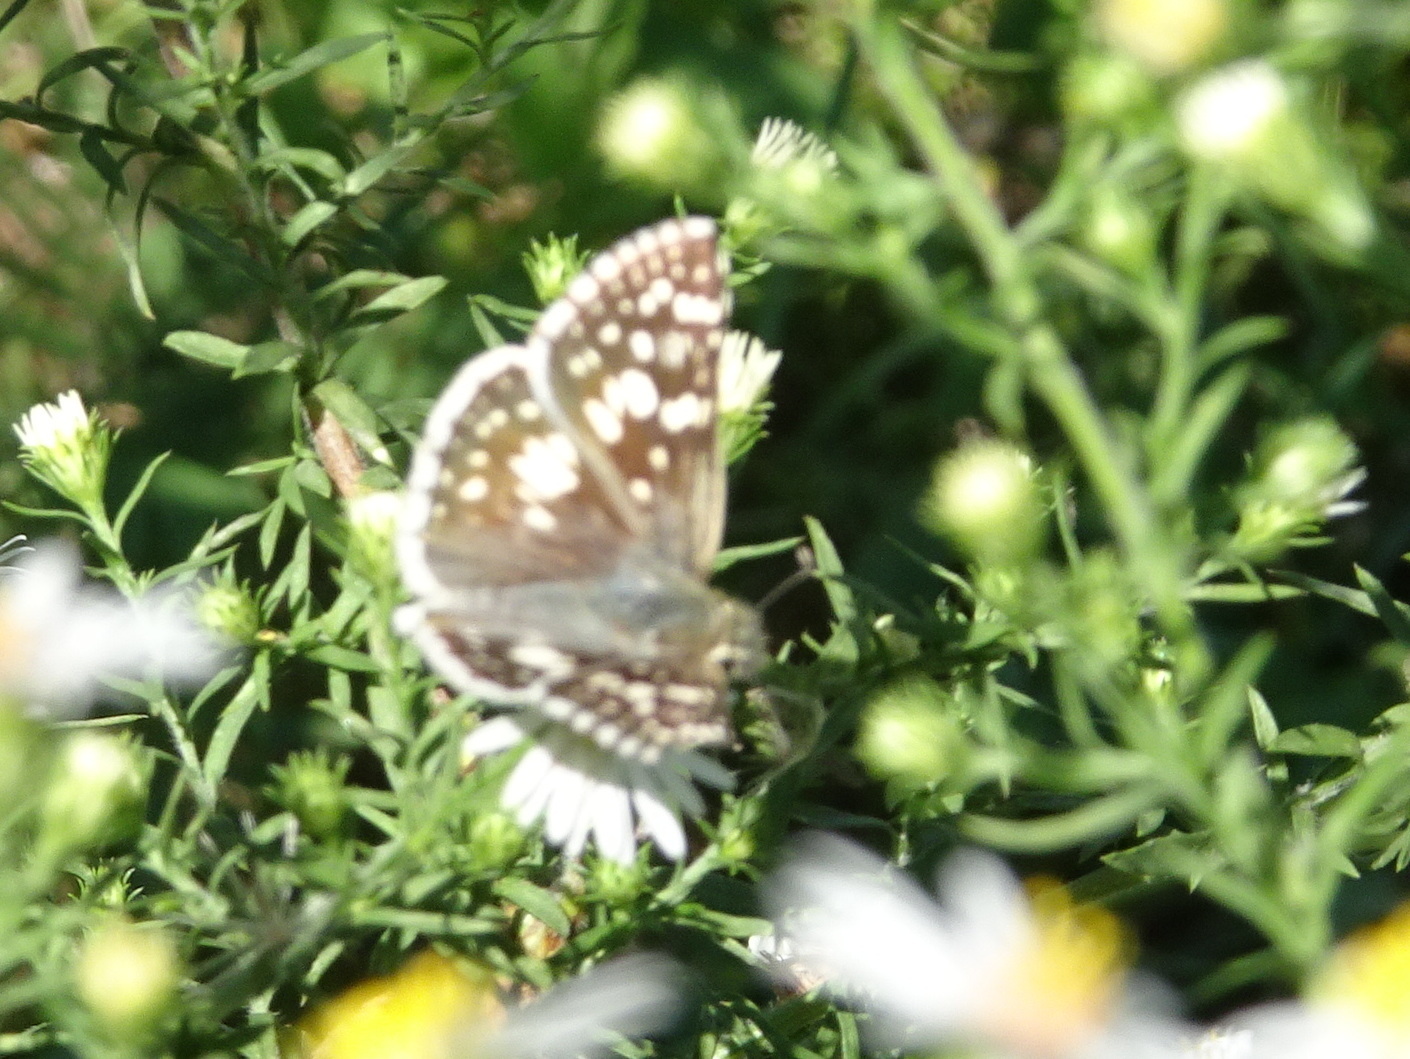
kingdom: Animalia
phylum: Arthropoda
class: Insecta
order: Lepidoptera
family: Hesperiidae
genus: Burnsius
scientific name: Burnsius communis
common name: Common checkered-skipper
